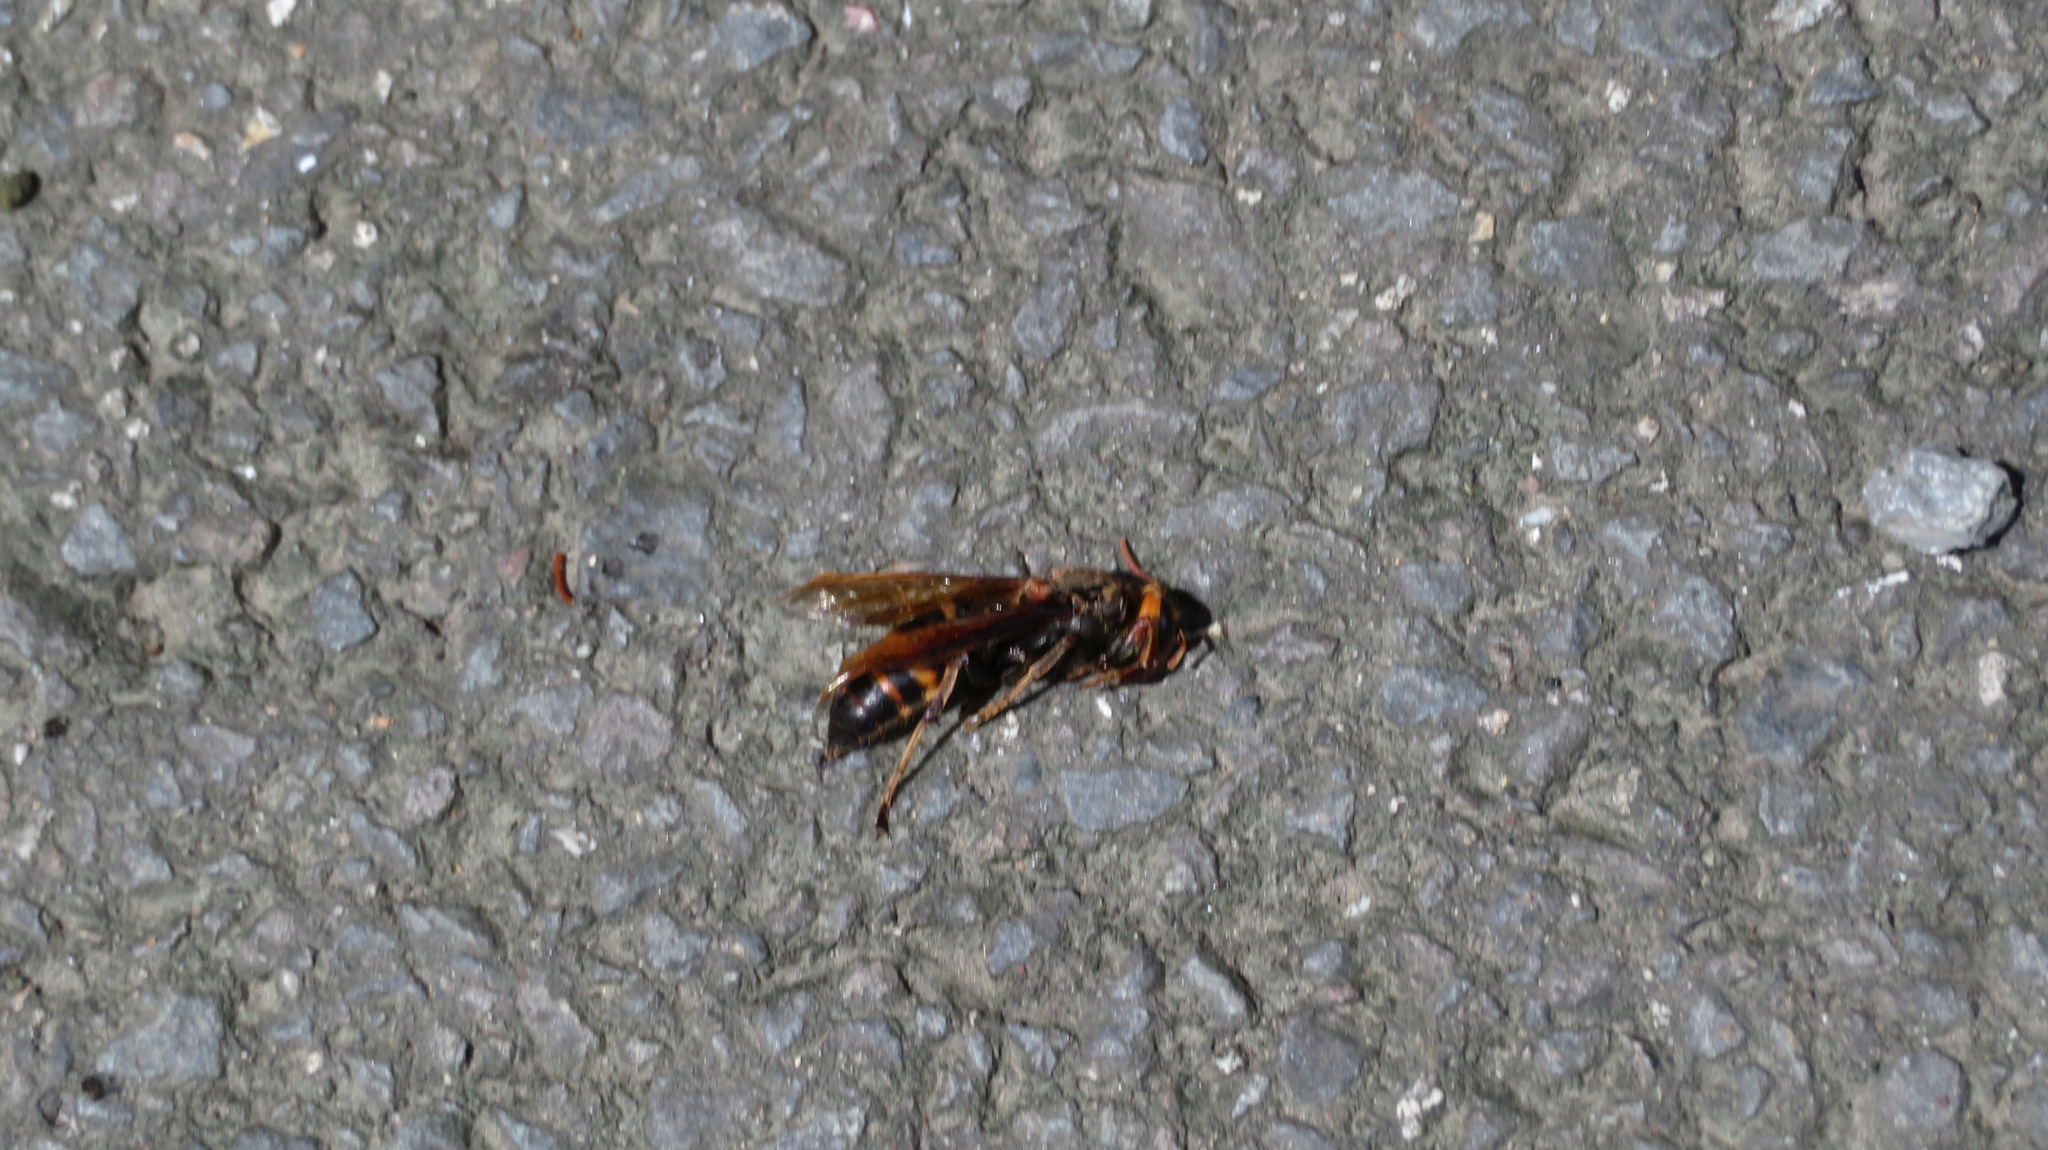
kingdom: Animalia
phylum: Arthropoda
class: Insecta
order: Hymenoptera
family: Vespidae
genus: Vespa
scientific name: Vespa ducalis
